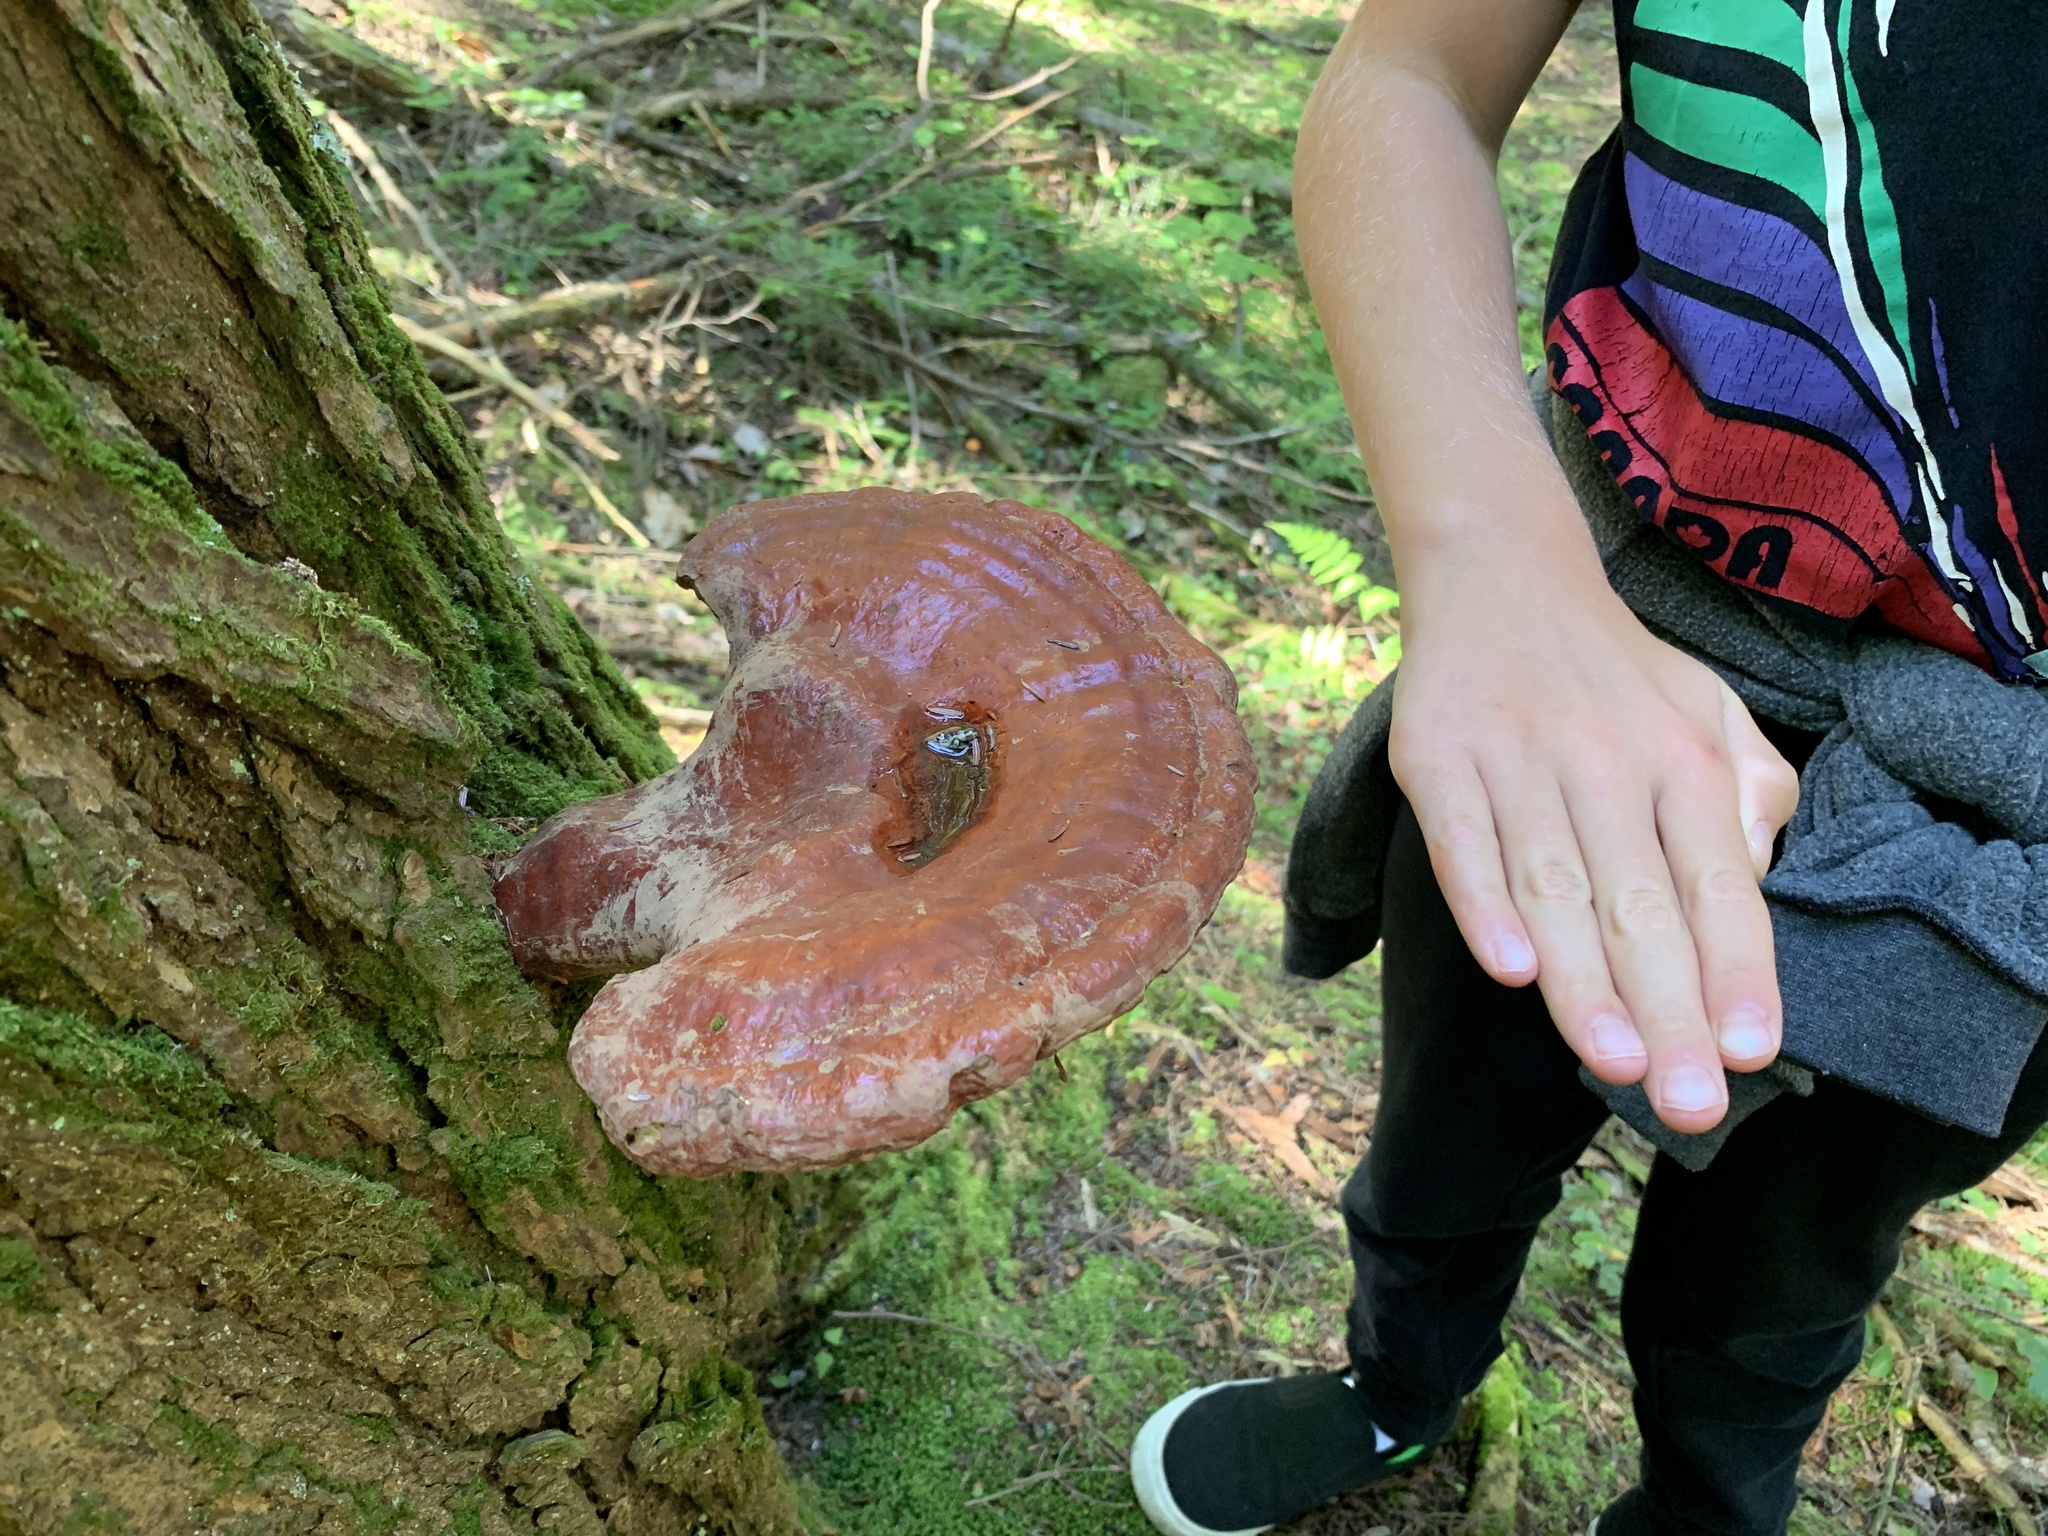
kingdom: Fungi
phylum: Basidiomycota
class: Agaricomycetes
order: Polyporales
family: Polyporaceae
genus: Ganoderma
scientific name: Ganoderma tsugae
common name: Hemlock varnish shelf
